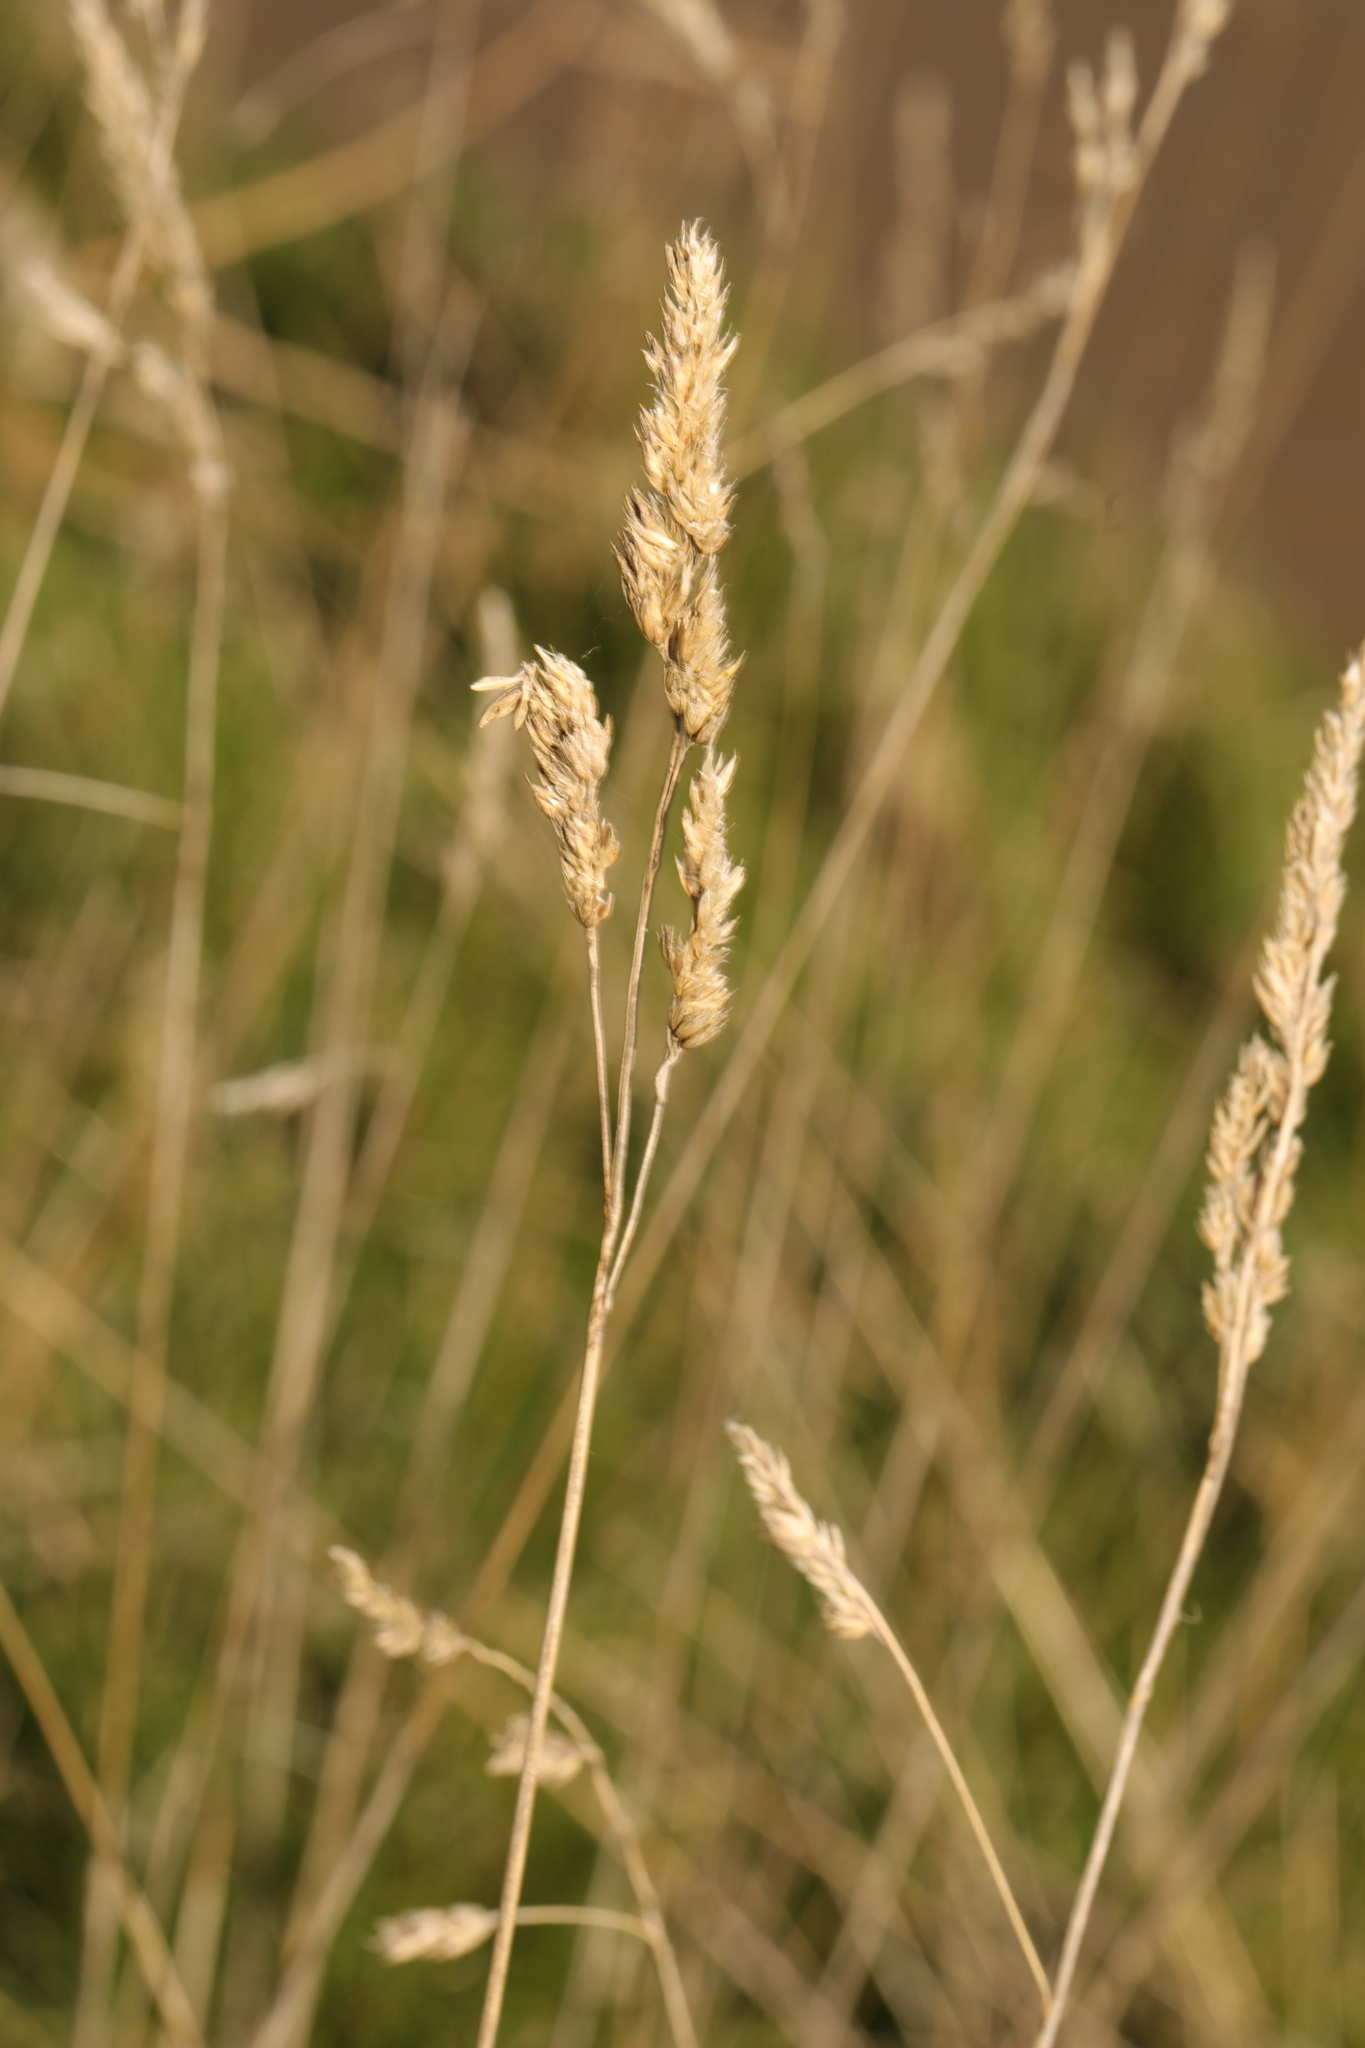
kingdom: Plantae
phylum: Tracheophyta
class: Liliopsida
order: Poales
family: Poaceae
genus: Dactylis
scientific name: Dactylis glomerata
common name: Orchardgrass
